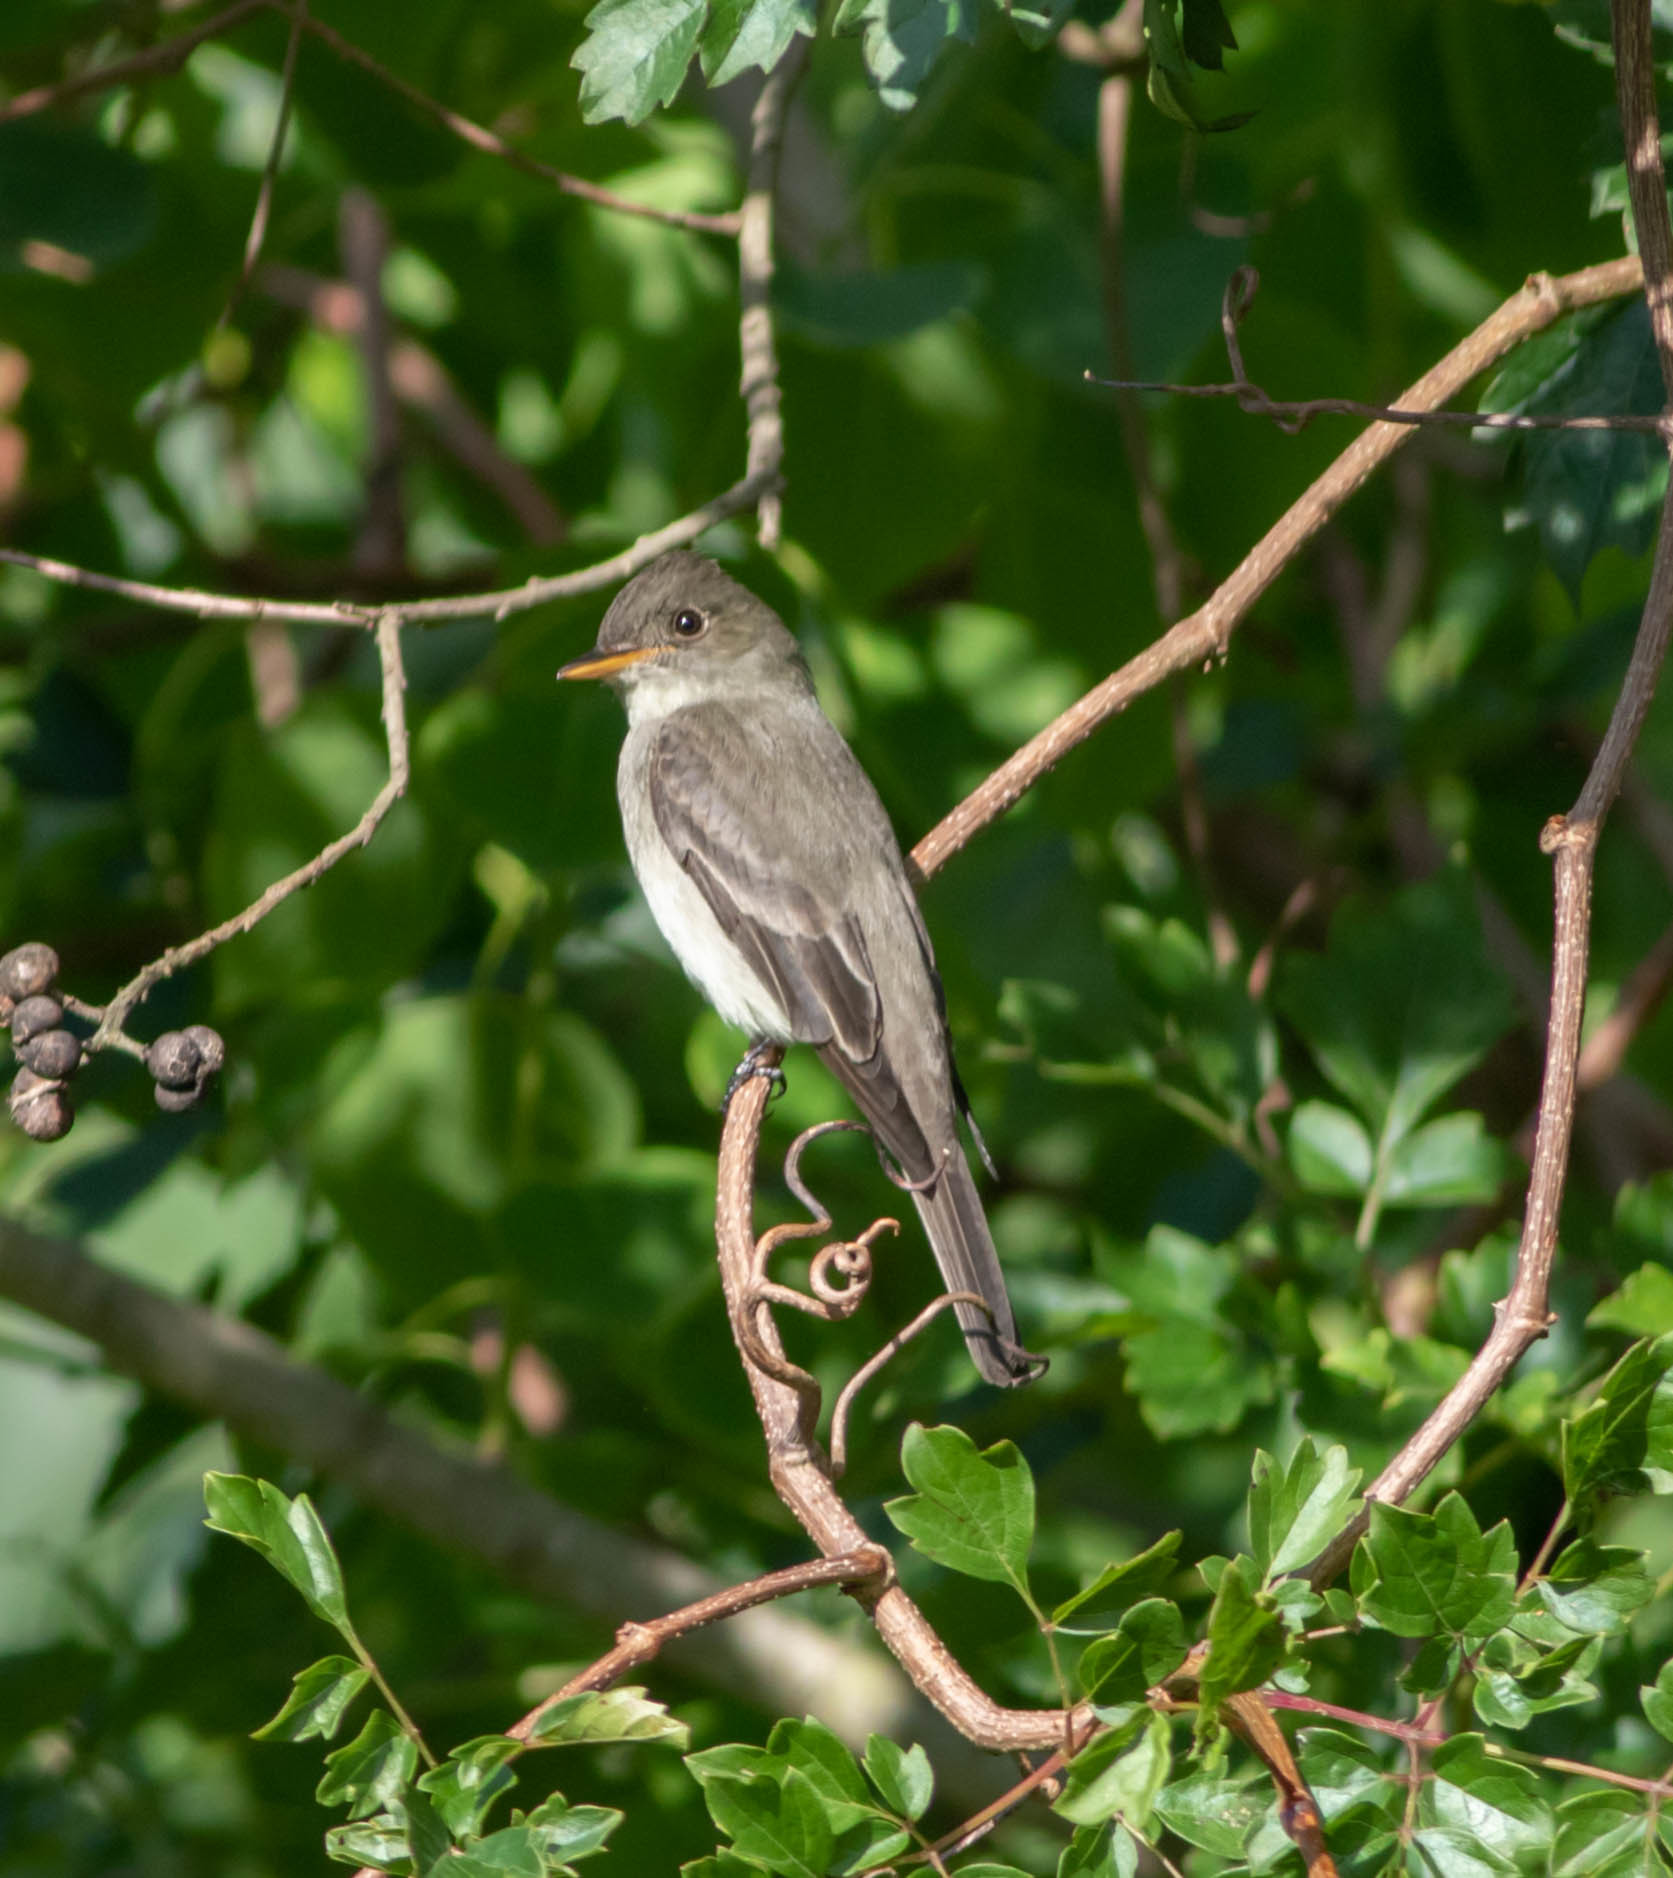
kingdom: Animalia
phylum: Chordata
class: Aves
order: Passeriformes
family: Tyrannidae
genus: Contopus
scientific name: Contopus virens
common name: Eastern wood-pewee
